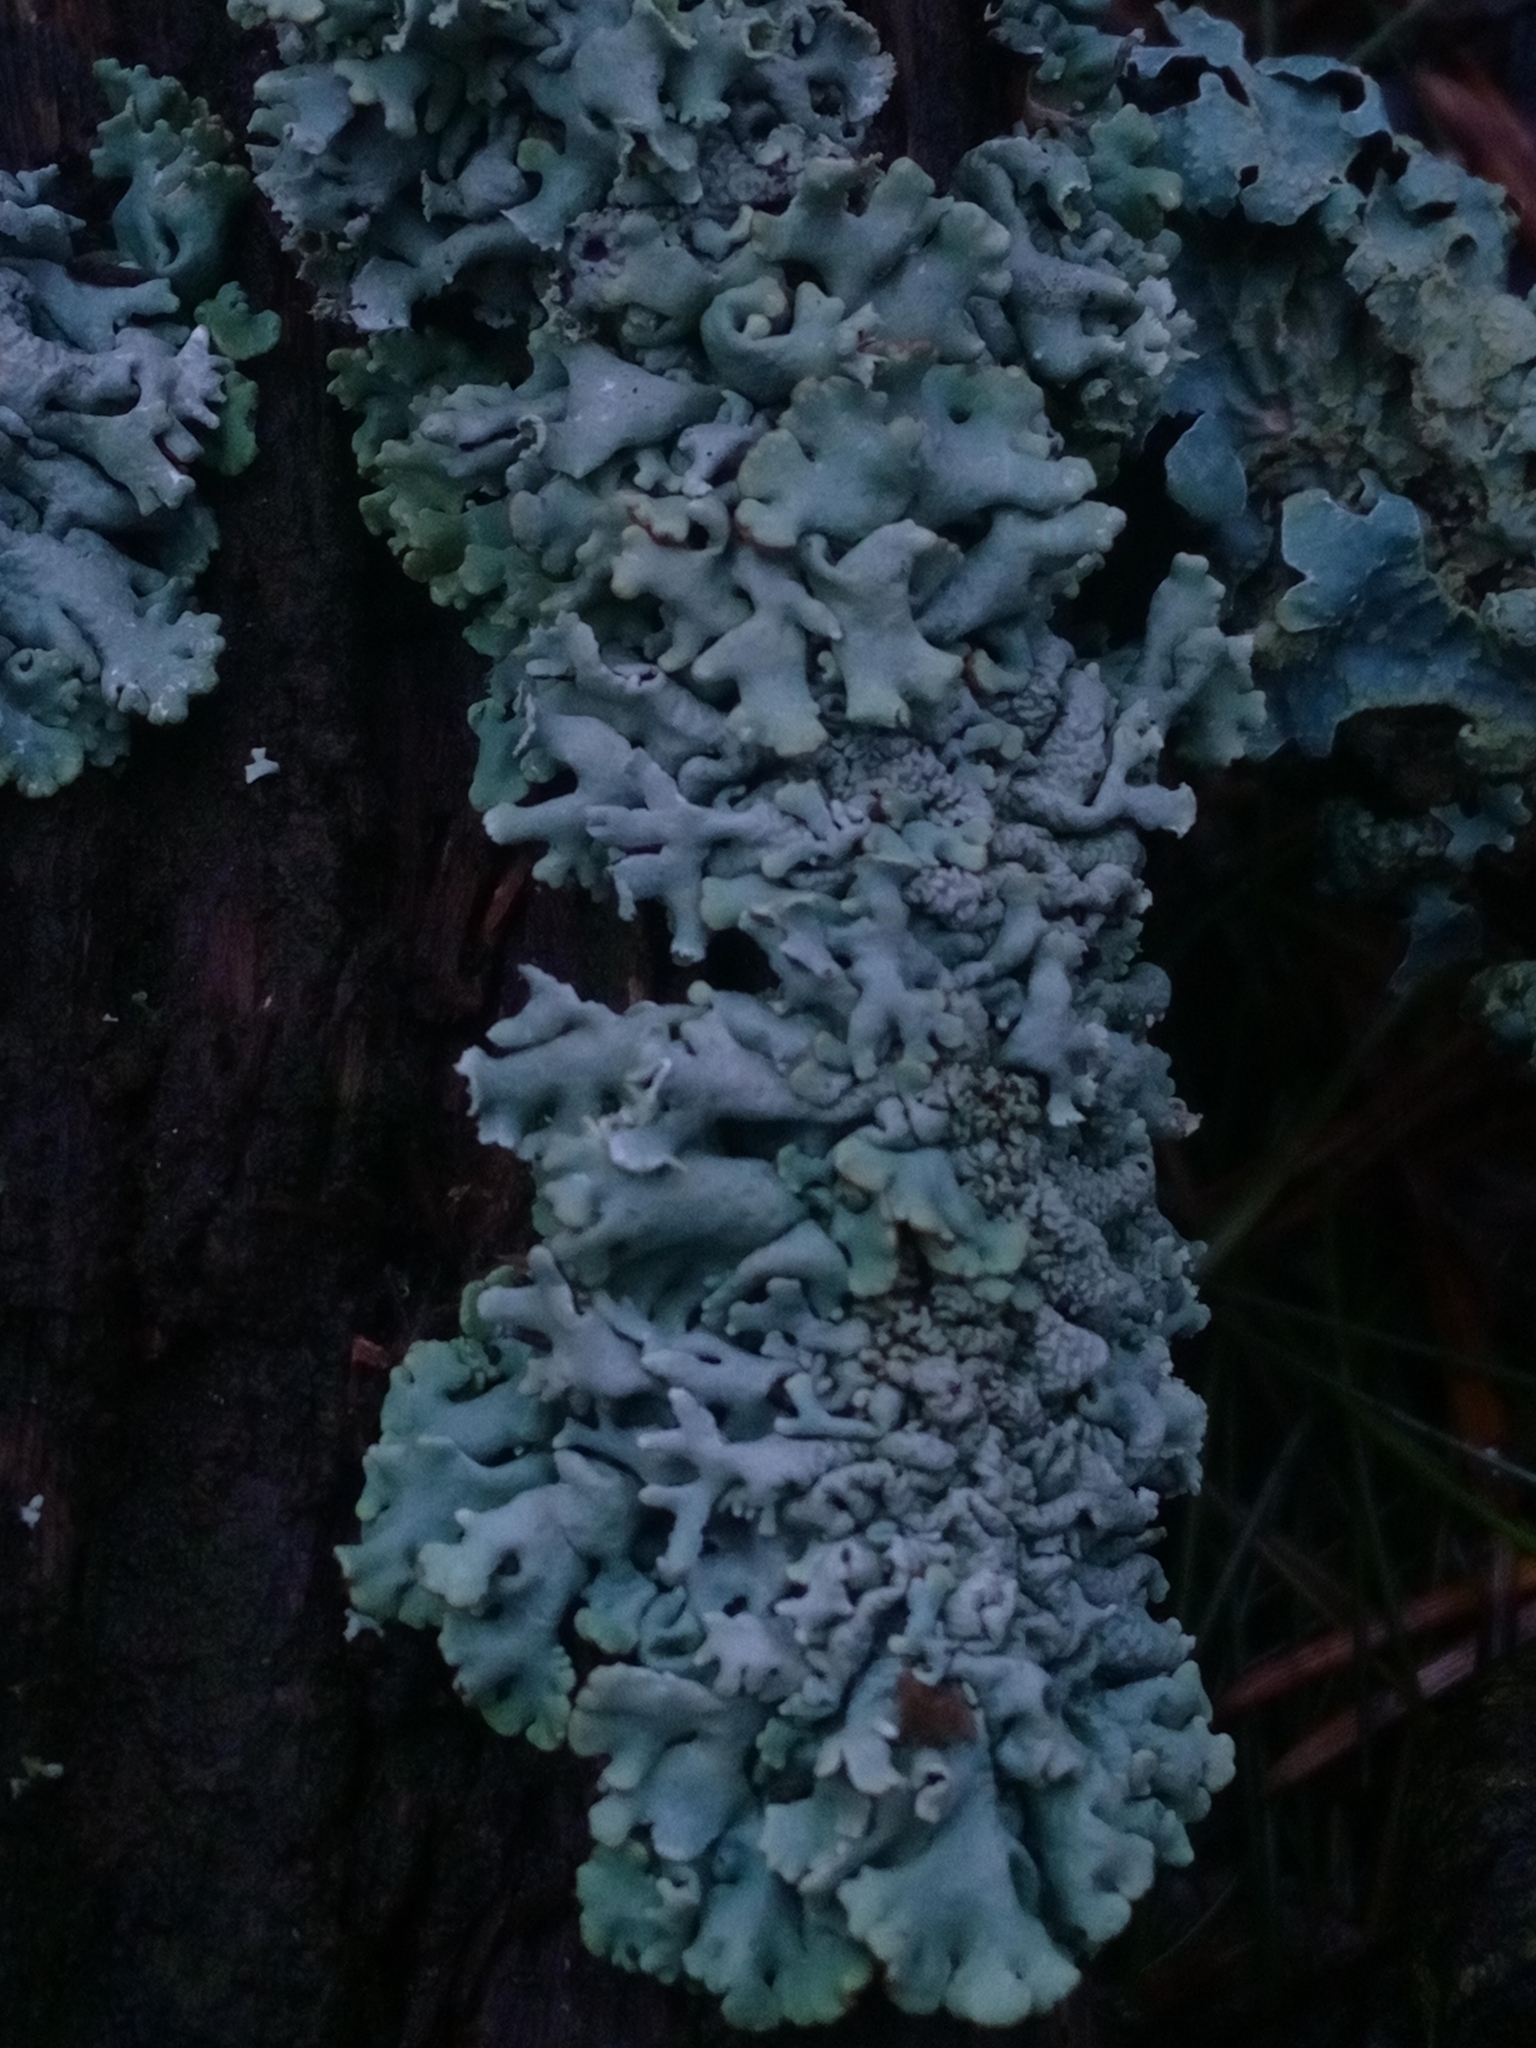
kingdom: Fungi
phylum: Ascomycota
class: Lecanoromycetes
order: Lecanorales
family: Parmeliaceae
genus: Hypogymnia
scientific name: Hypogymnia physodes
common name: Dark crottle
